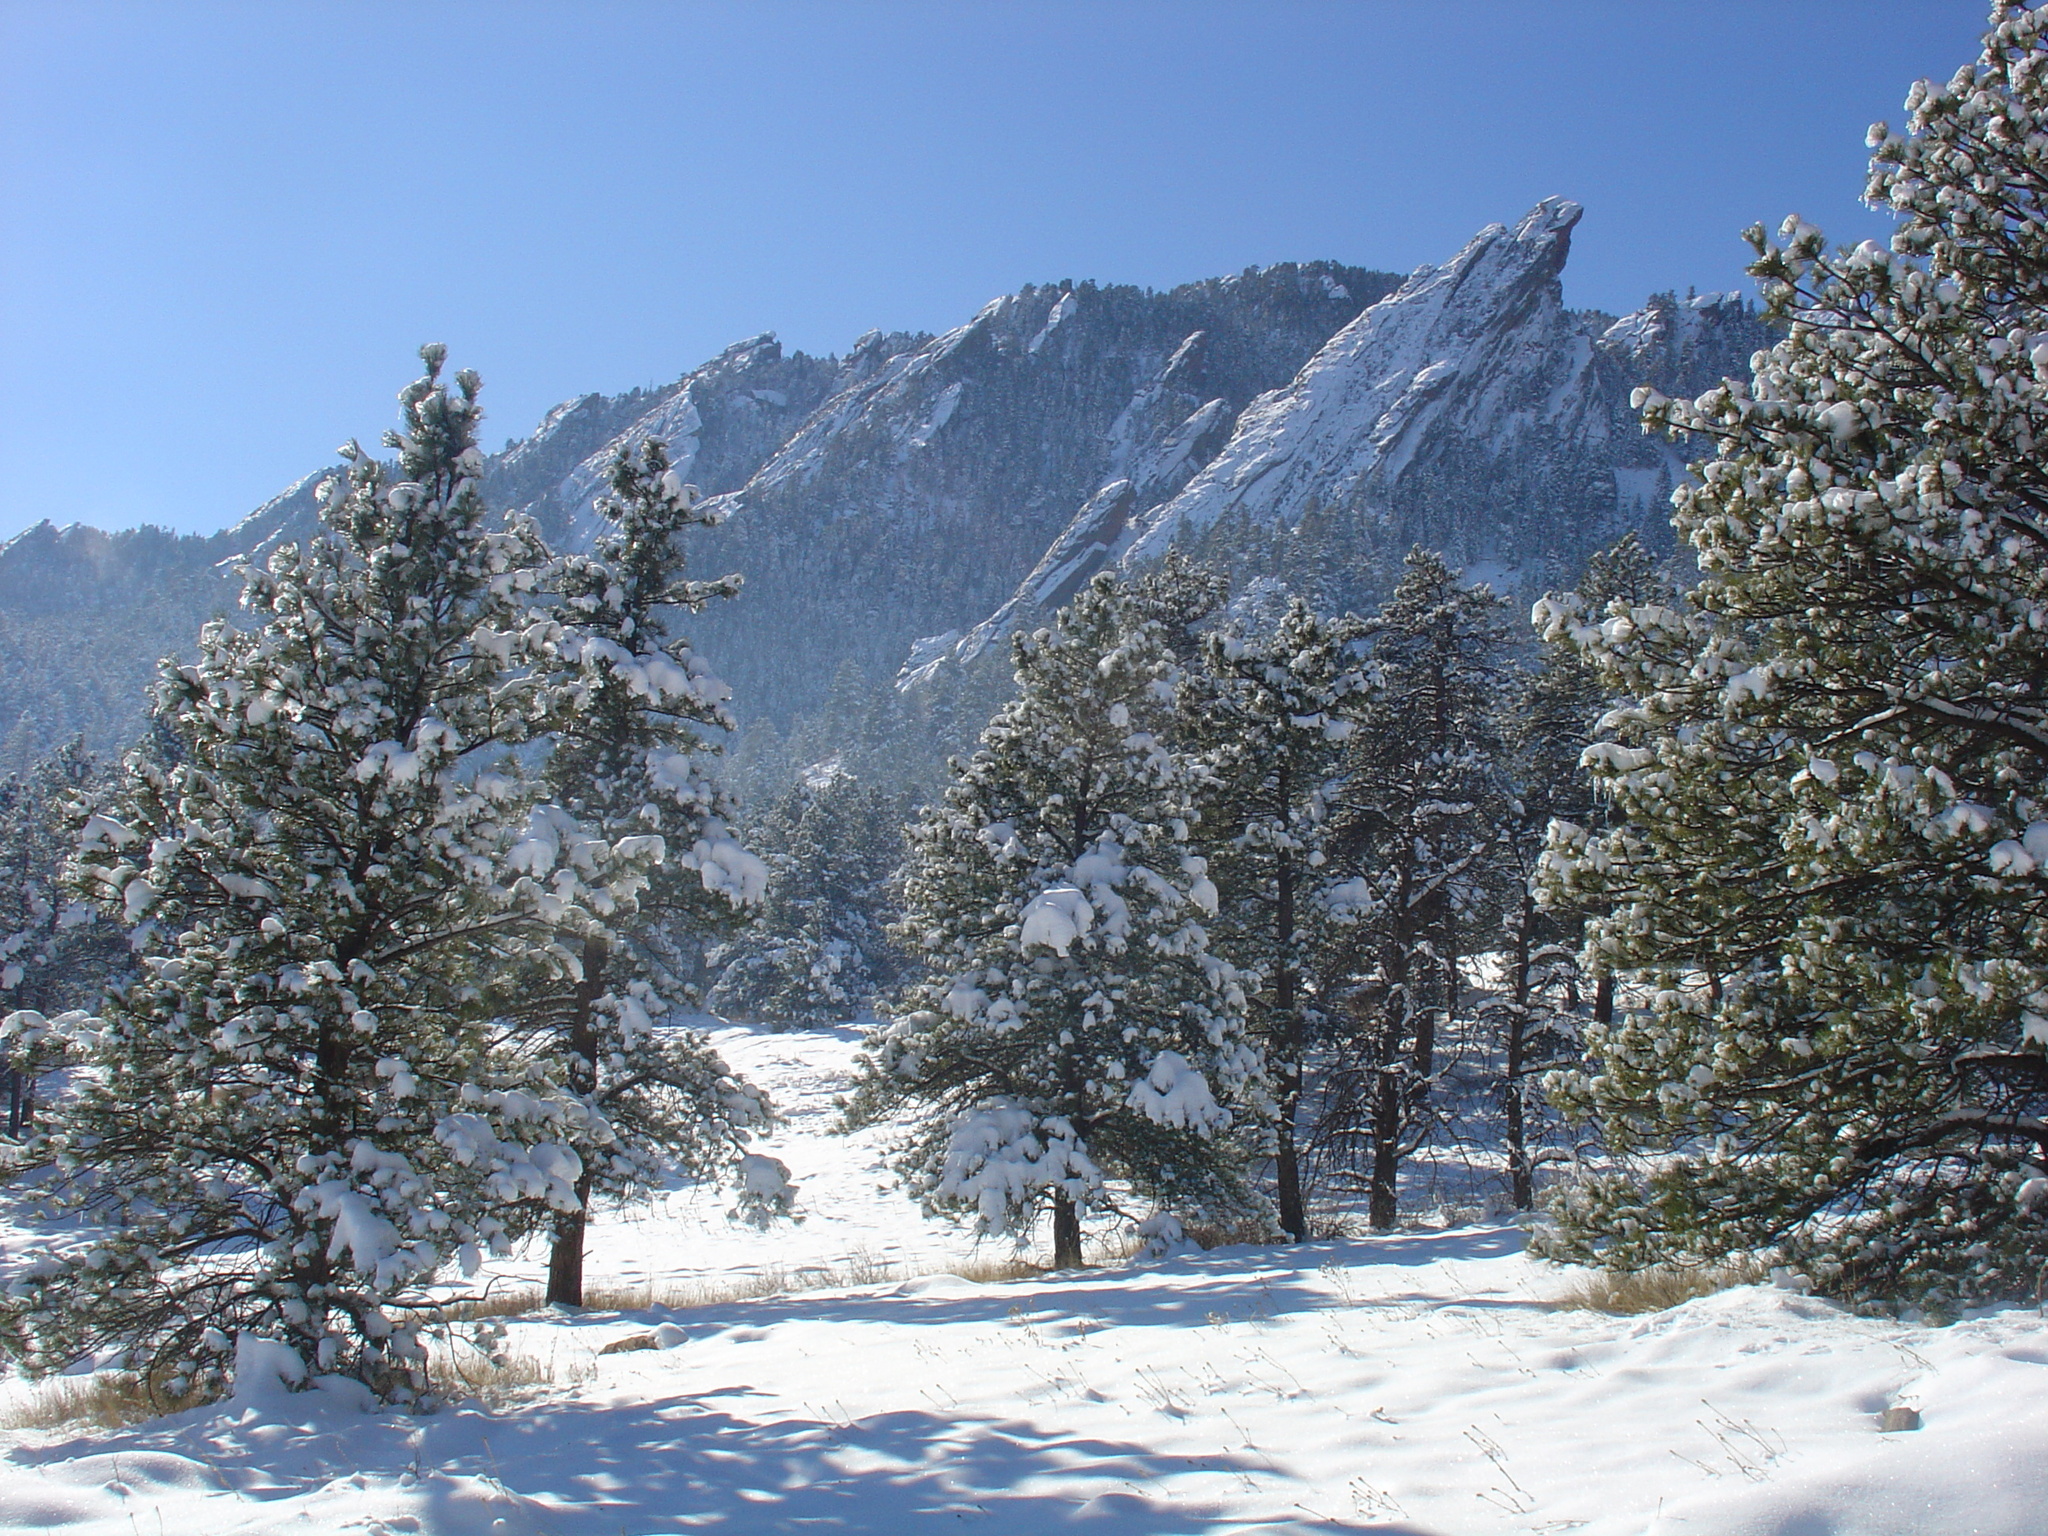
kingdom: Plantae
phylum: Tracheophyta
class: Pinopsida
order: Pinales
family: Pinaceae
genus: Pinus
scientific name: Pinus ponderosa
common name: Western yellow-pine
